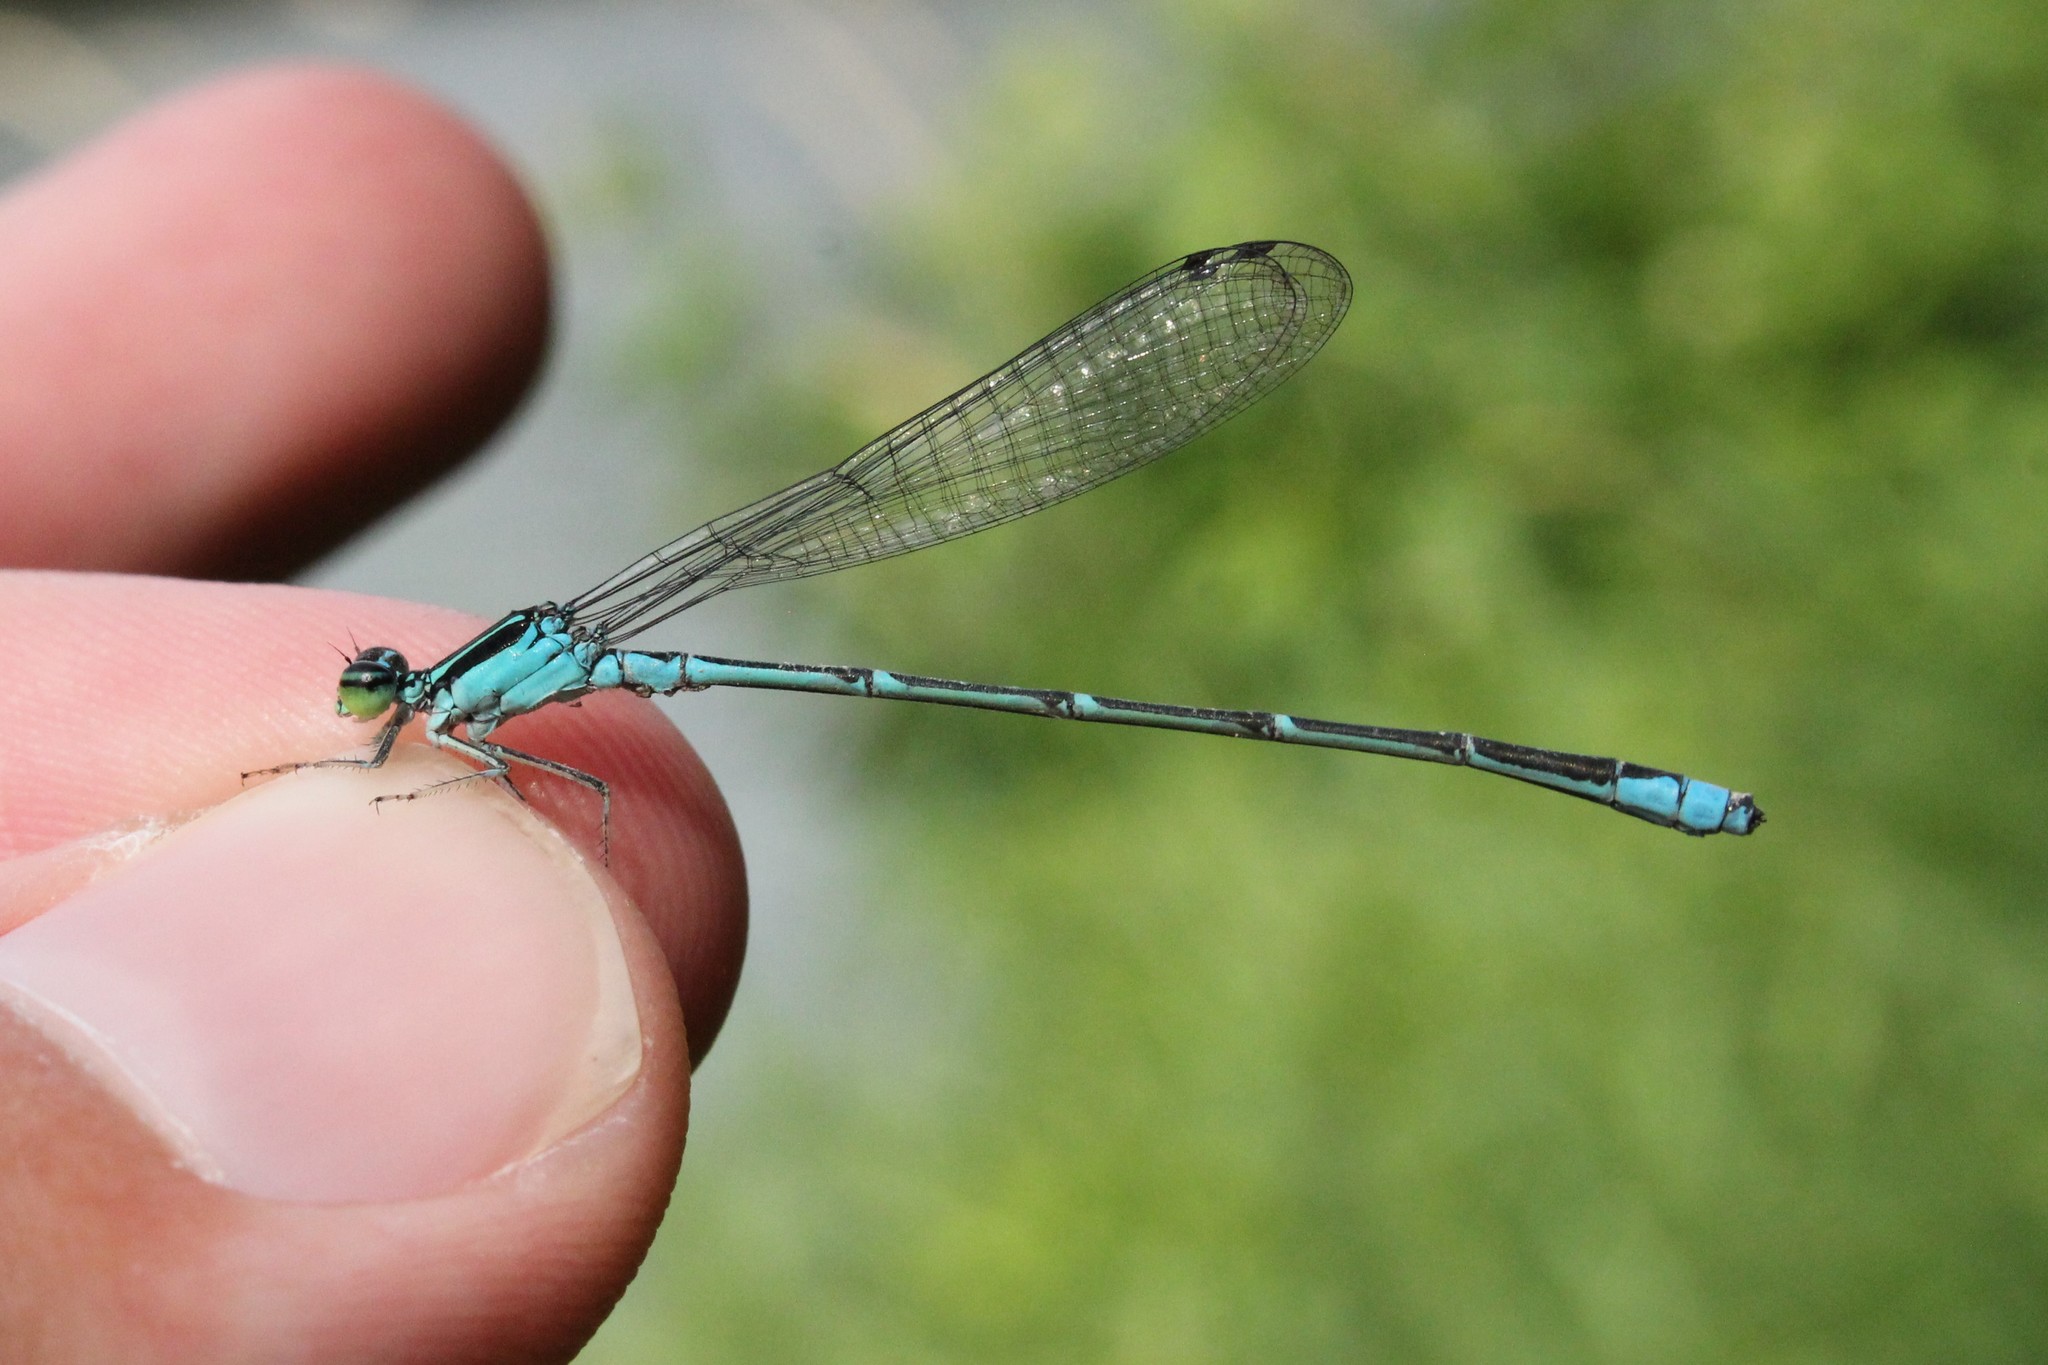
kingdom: Animalia
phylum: Arthropoda
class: Insecta
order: Odonata
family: Coenagrionidae
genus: Enallagma
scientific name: Enallagma exsulans
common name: Stream bluet
